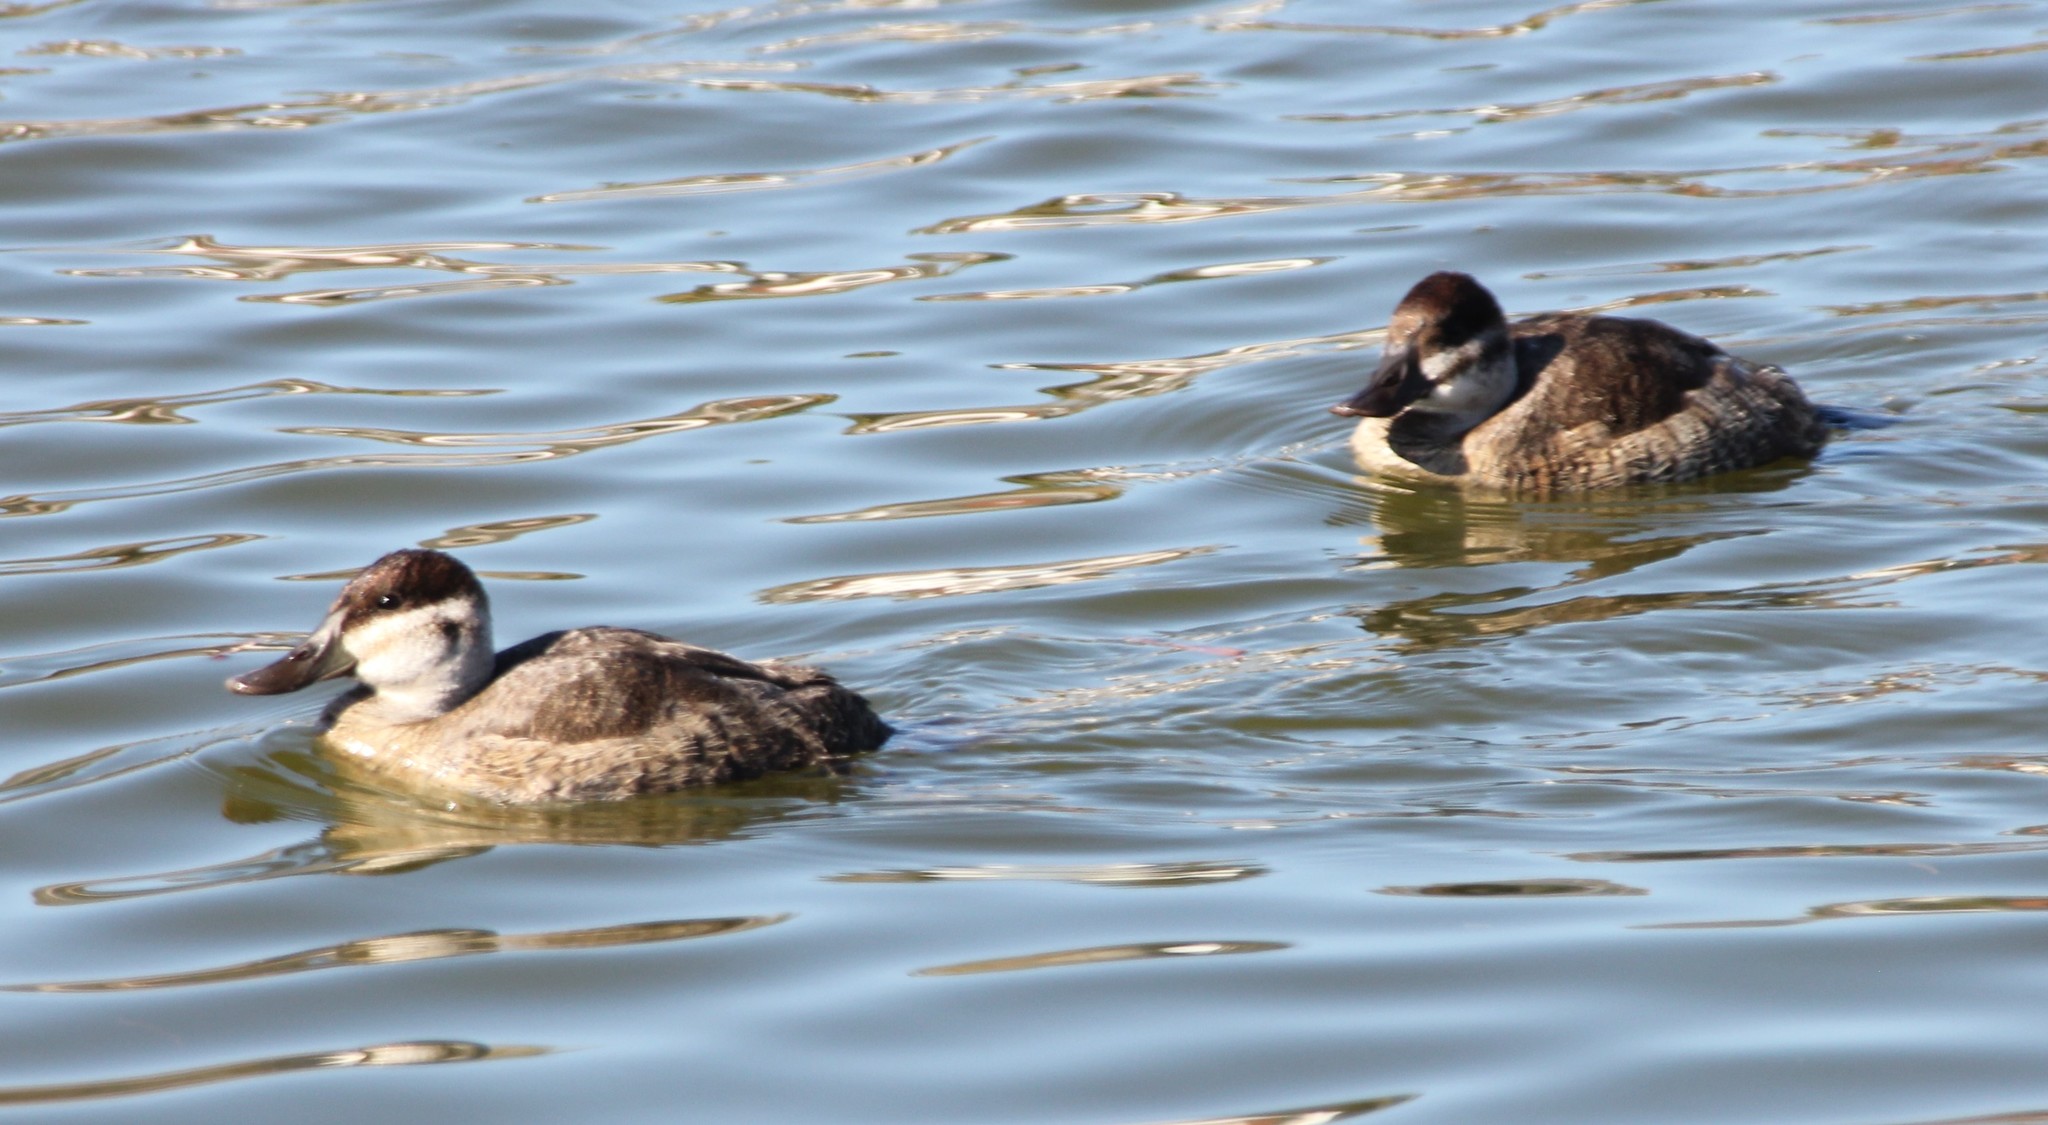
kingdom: Animalia
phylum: Chordata
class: Aves
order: Anseriformes
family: Anatidae
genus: Oxyura
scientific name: Oxyura jamaicensis
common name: Ruddy duck
